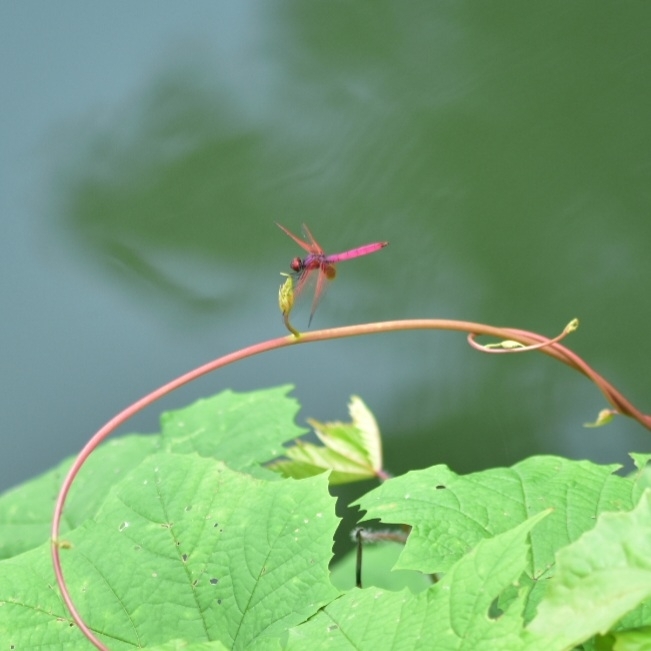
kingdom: Animalia
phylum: Arthropoda
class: Insecta
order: Odonata
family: Libellulidae
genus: Trithemis
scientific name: Trithemis aurora
